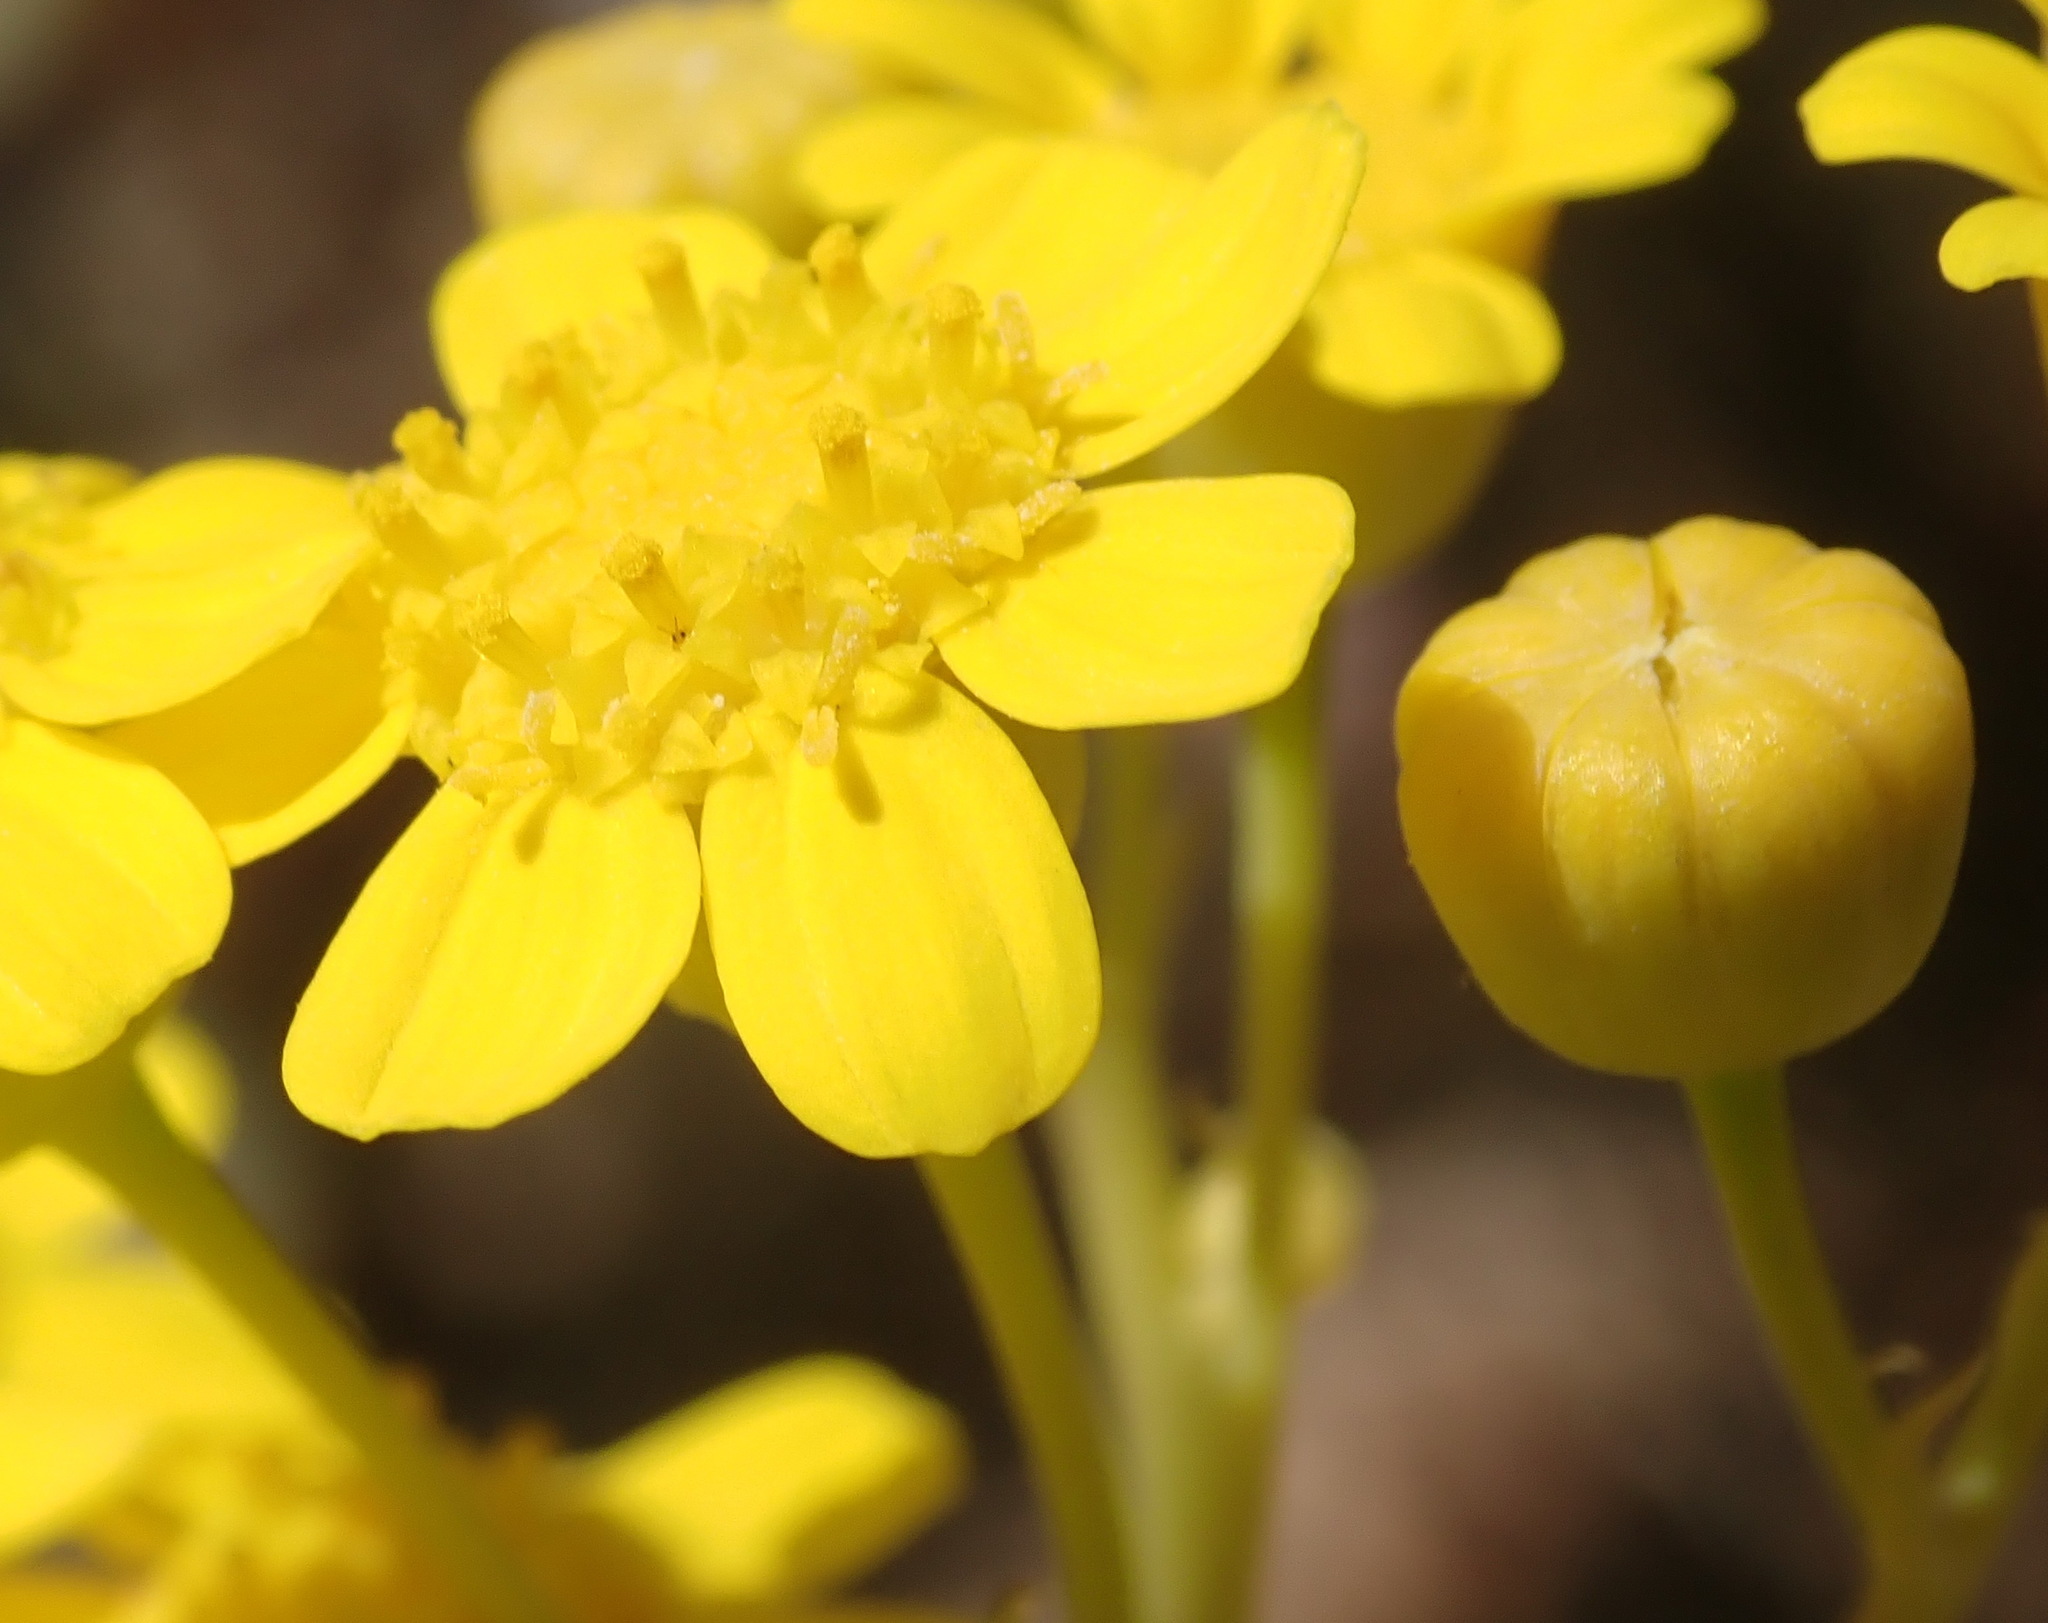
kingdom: Plantae
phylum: Tracheophyta
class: Magnoliopsida
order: Asterales
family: Asteraceae
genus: Othonna
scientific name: Othonna parviflora
